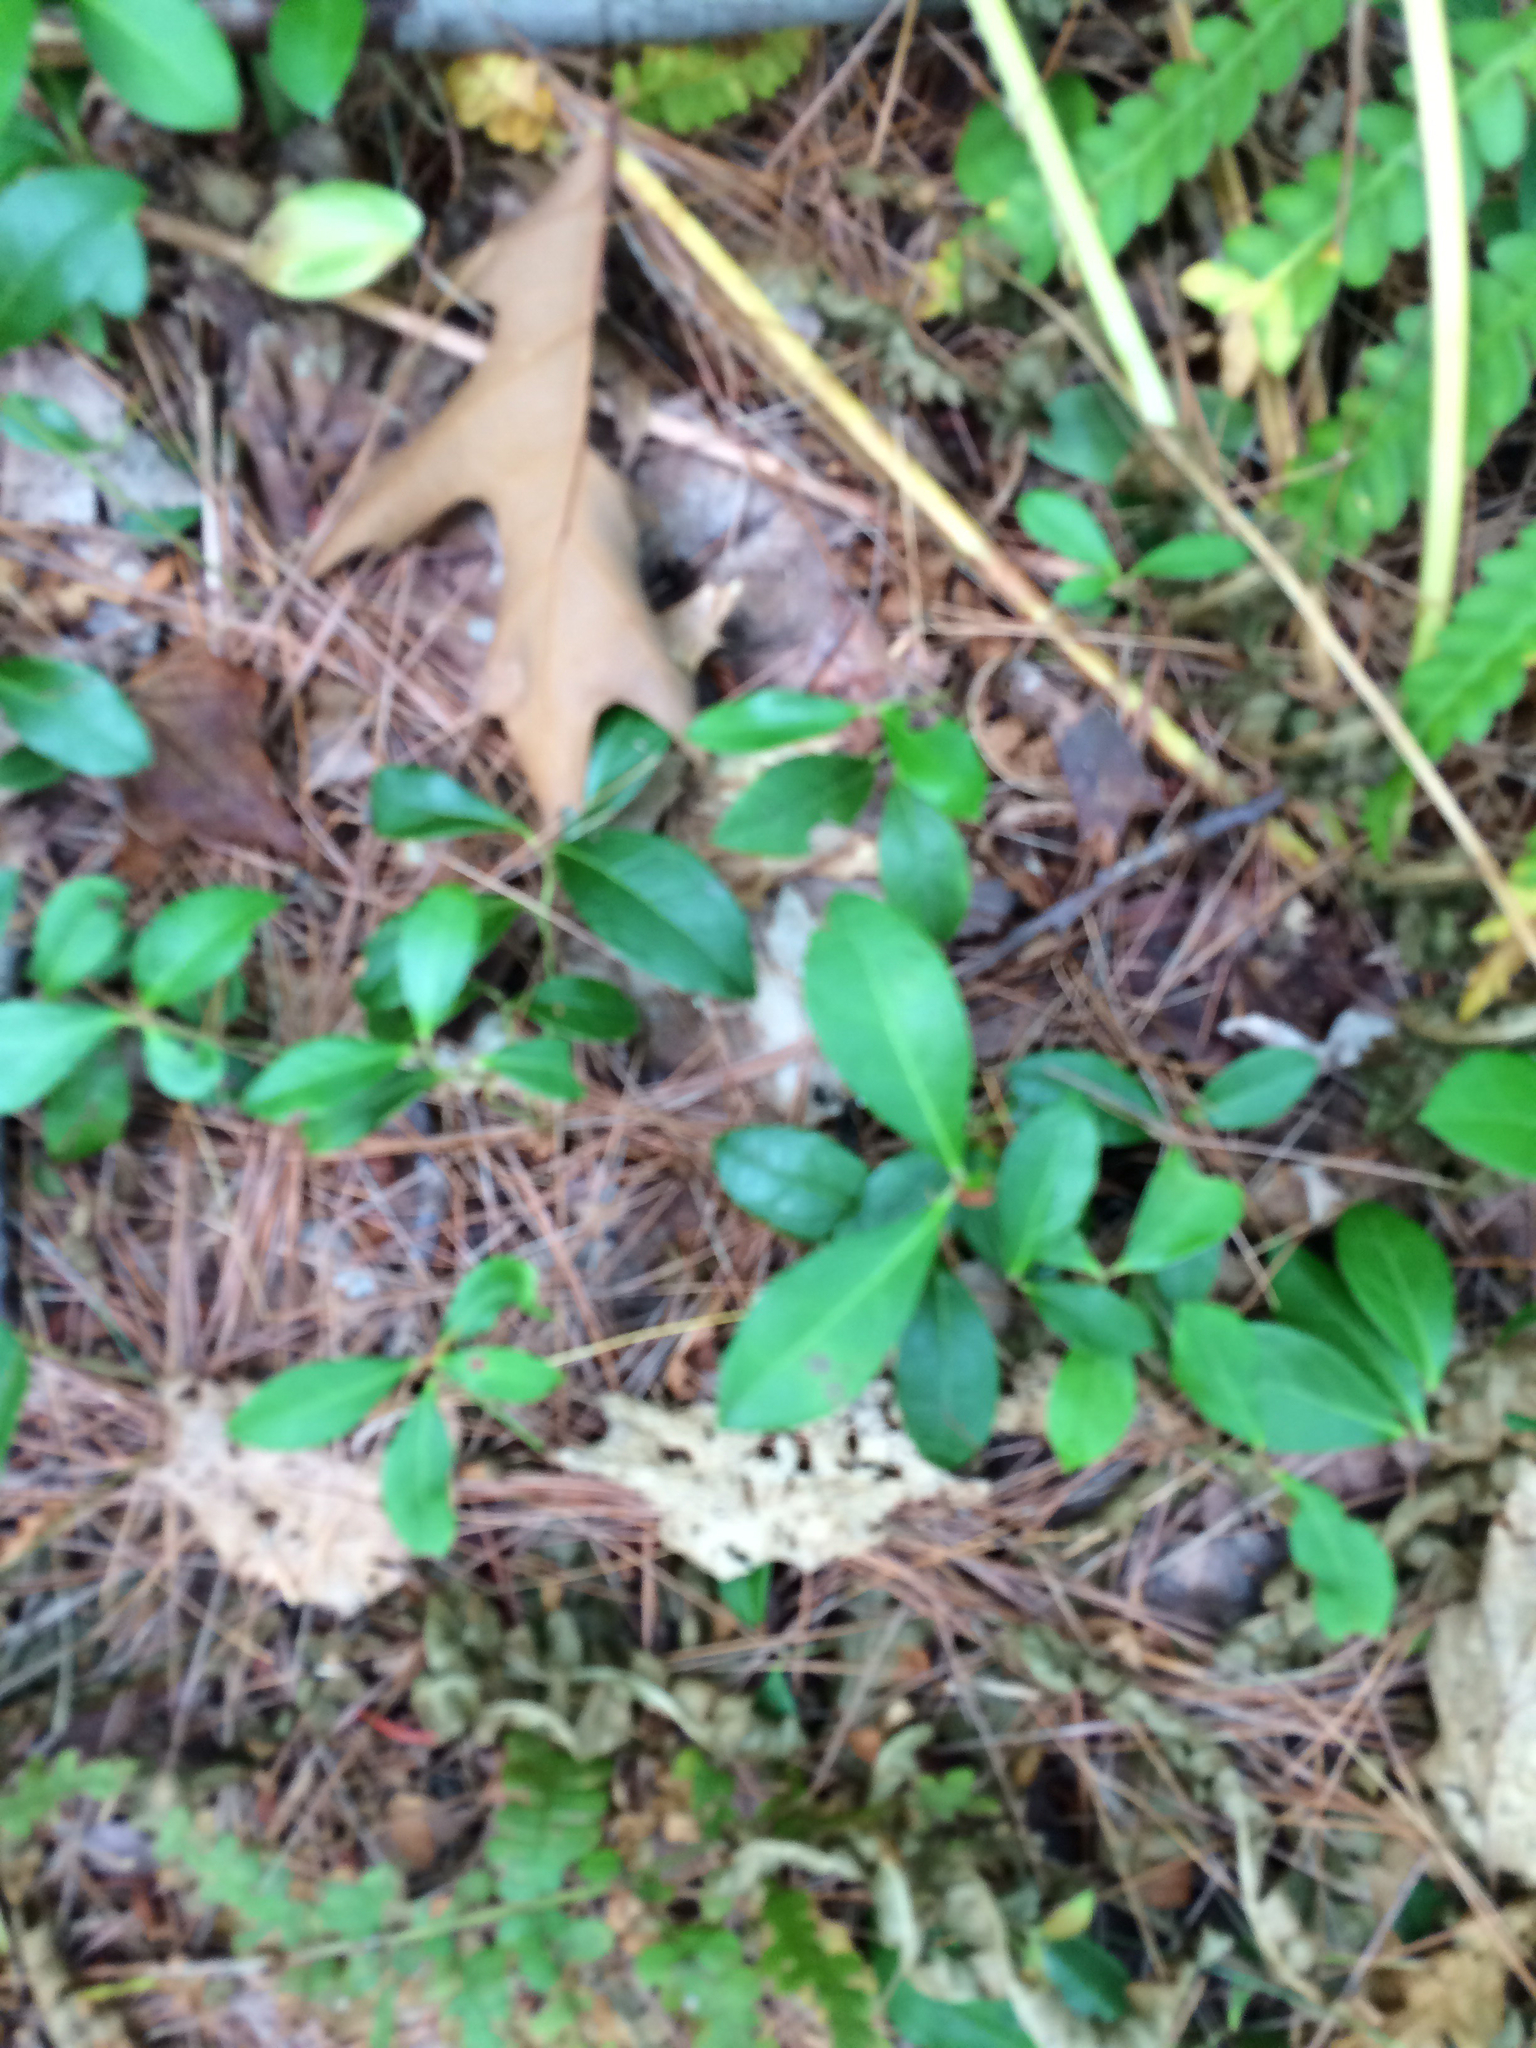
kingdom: Plantae
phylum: Tracheophyta
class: Magnoliopsida
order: Ericales
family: Ericaceae
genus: Gaultheria
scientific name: Gaultheria procumbens
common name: Checkerberry
